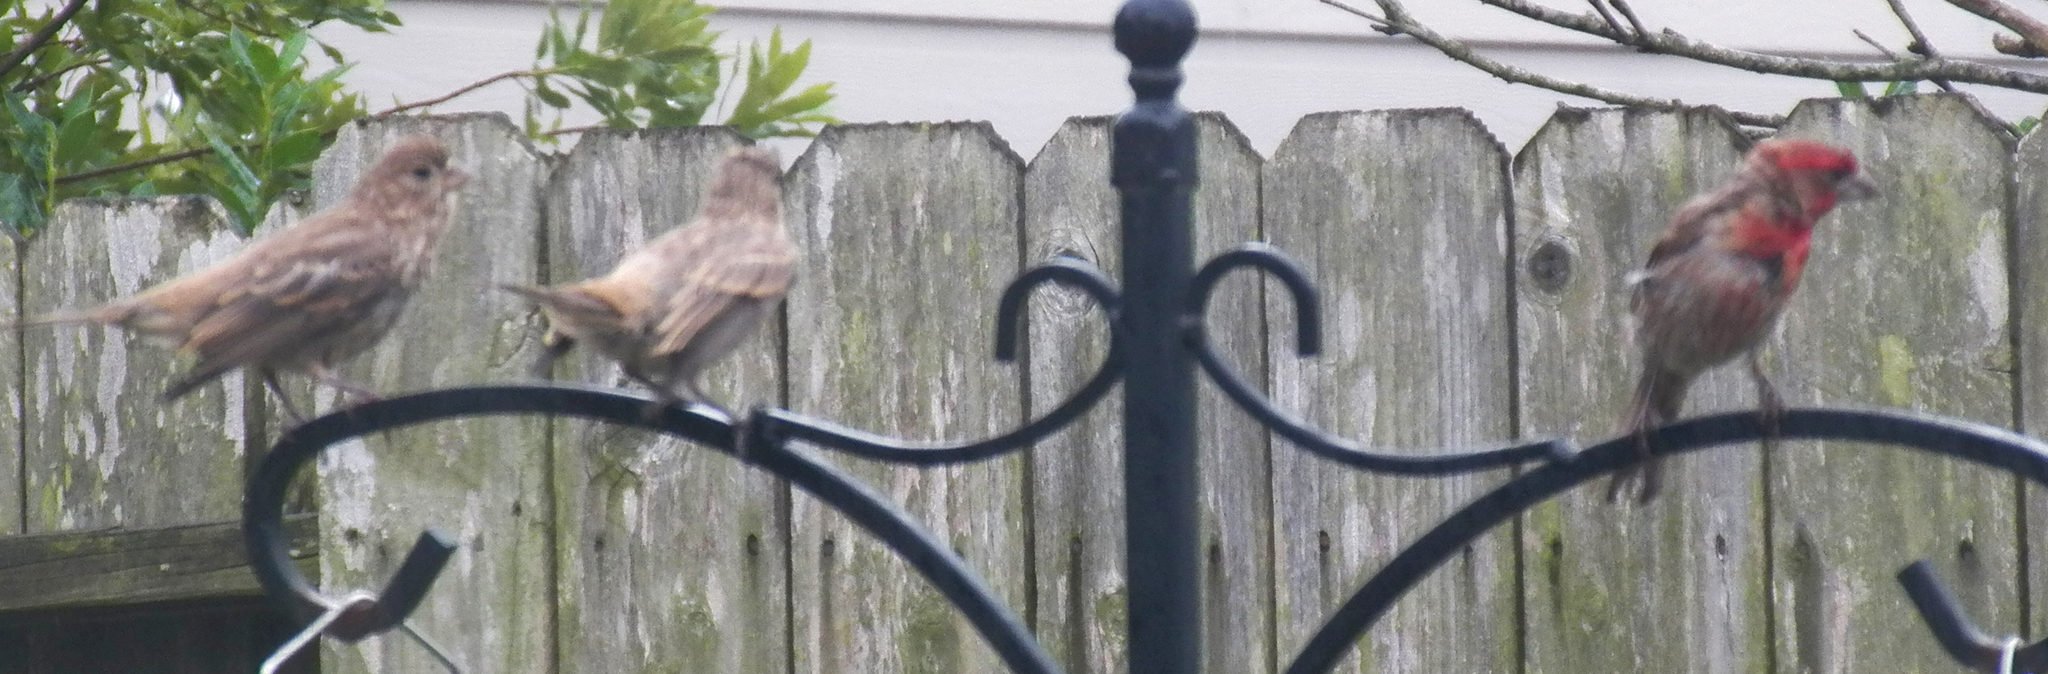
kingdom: Animalia
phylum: Chordata
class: Aves
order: Passeriformes
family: Fringillidae
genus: Haemorhous
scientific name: Haemorhous mexicanus
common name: House finch
